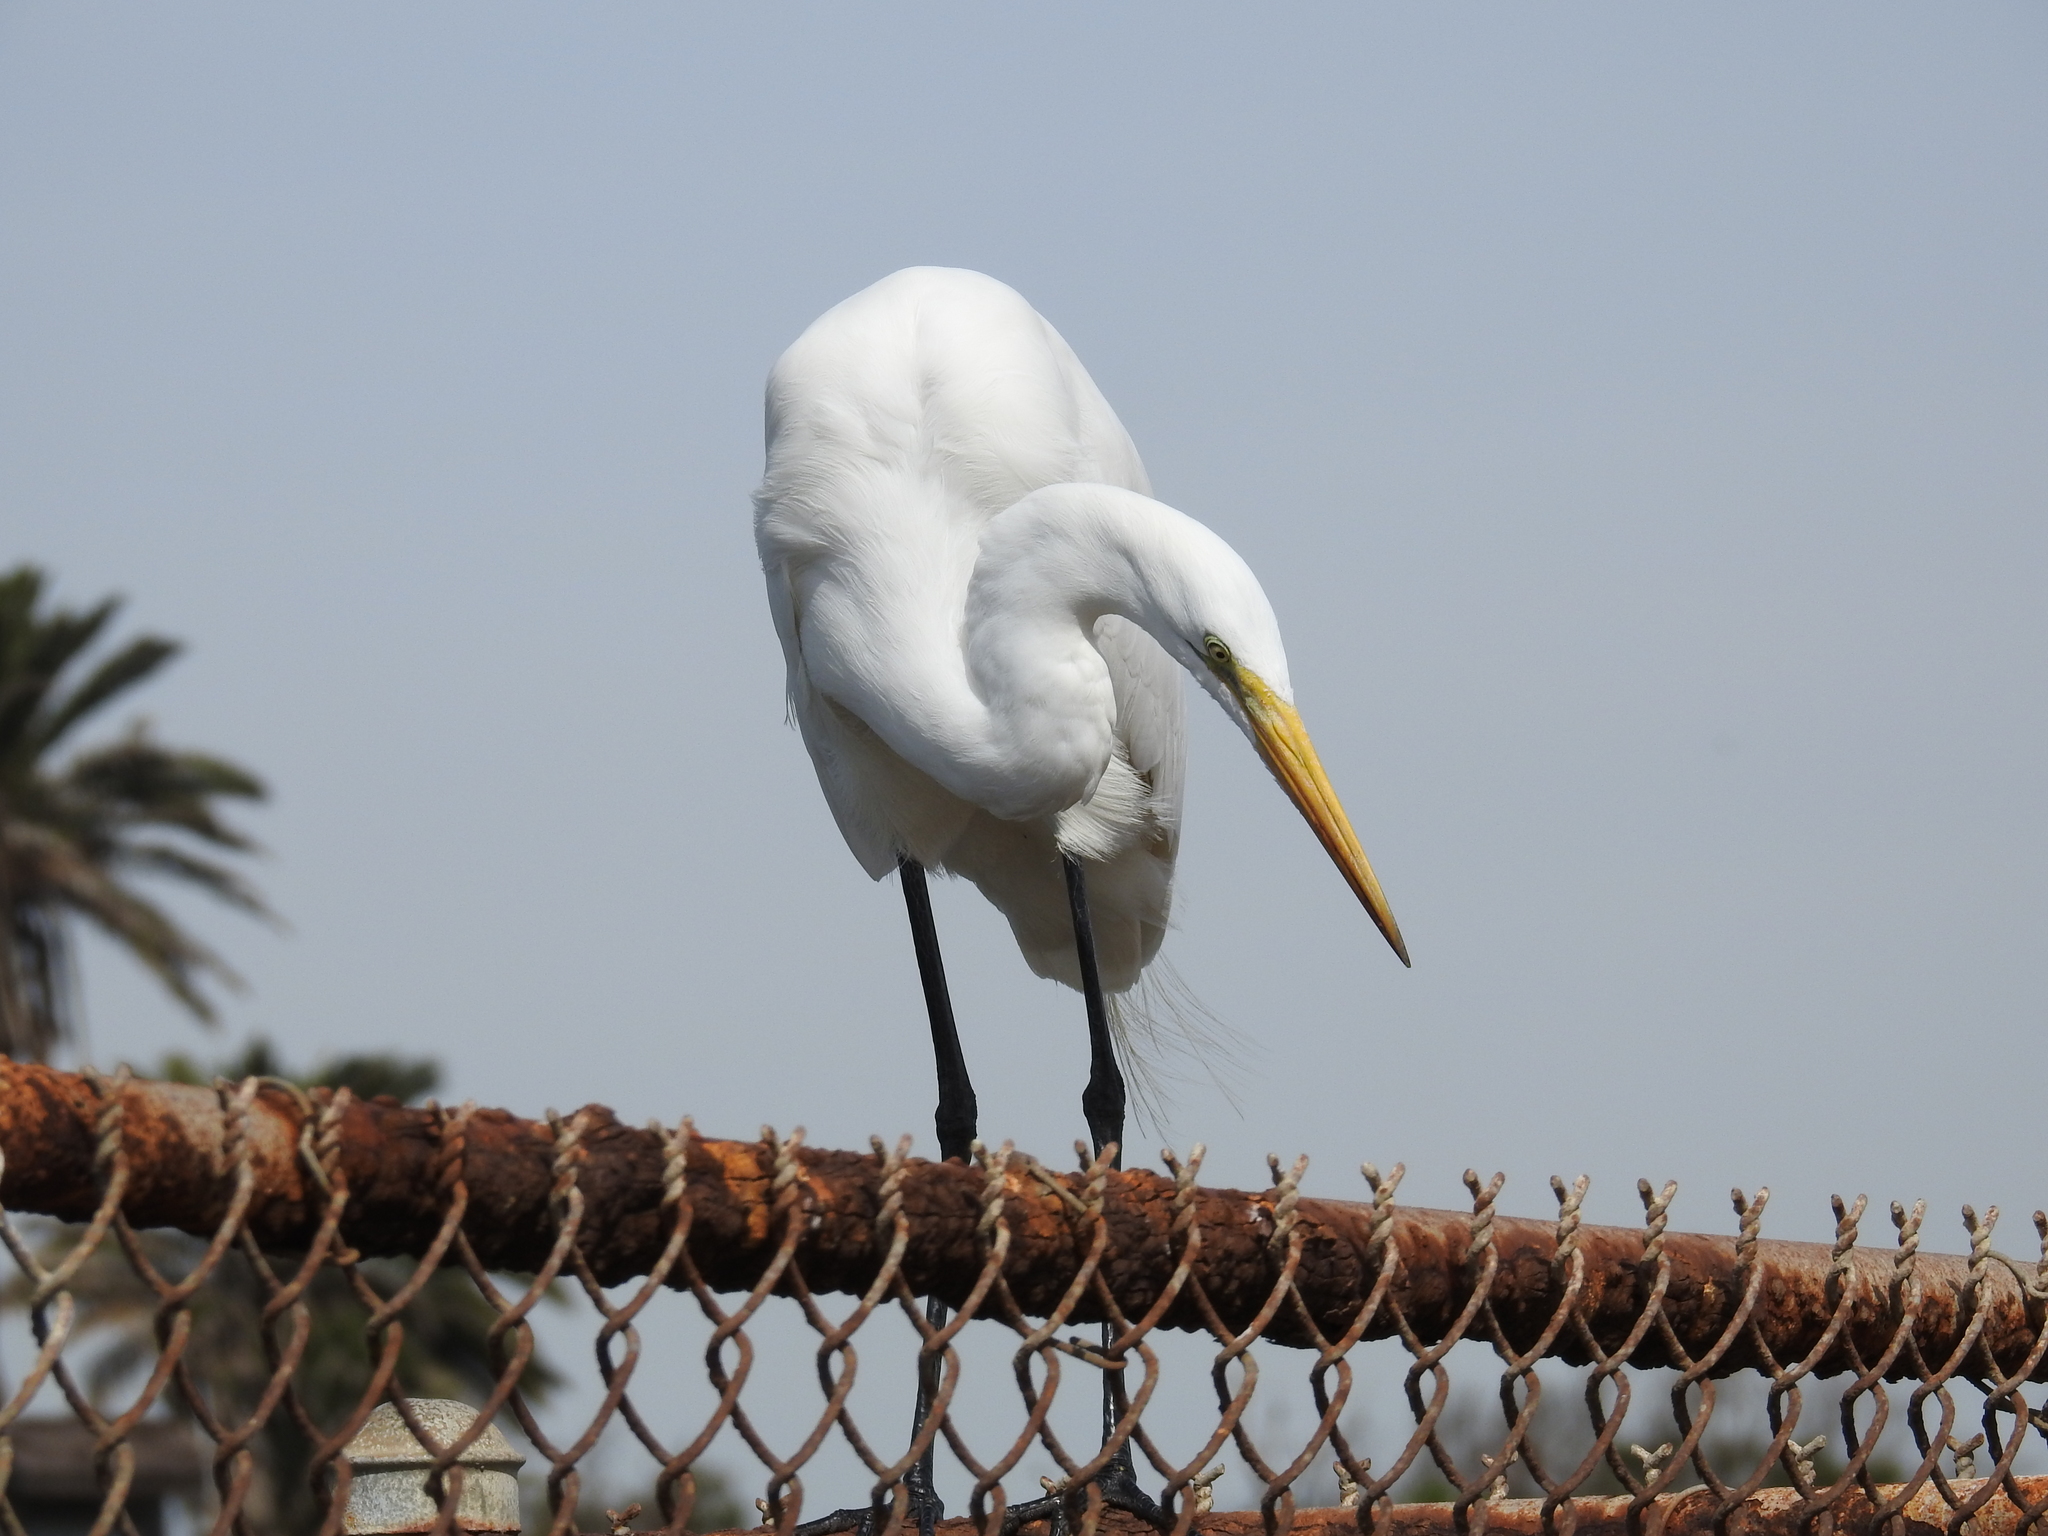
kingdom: Animalia
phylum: Chordata
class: Aves
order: Pelecaniformes
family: Ardeidae
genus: Ardea
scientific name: Ardea alba
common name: Great egret
